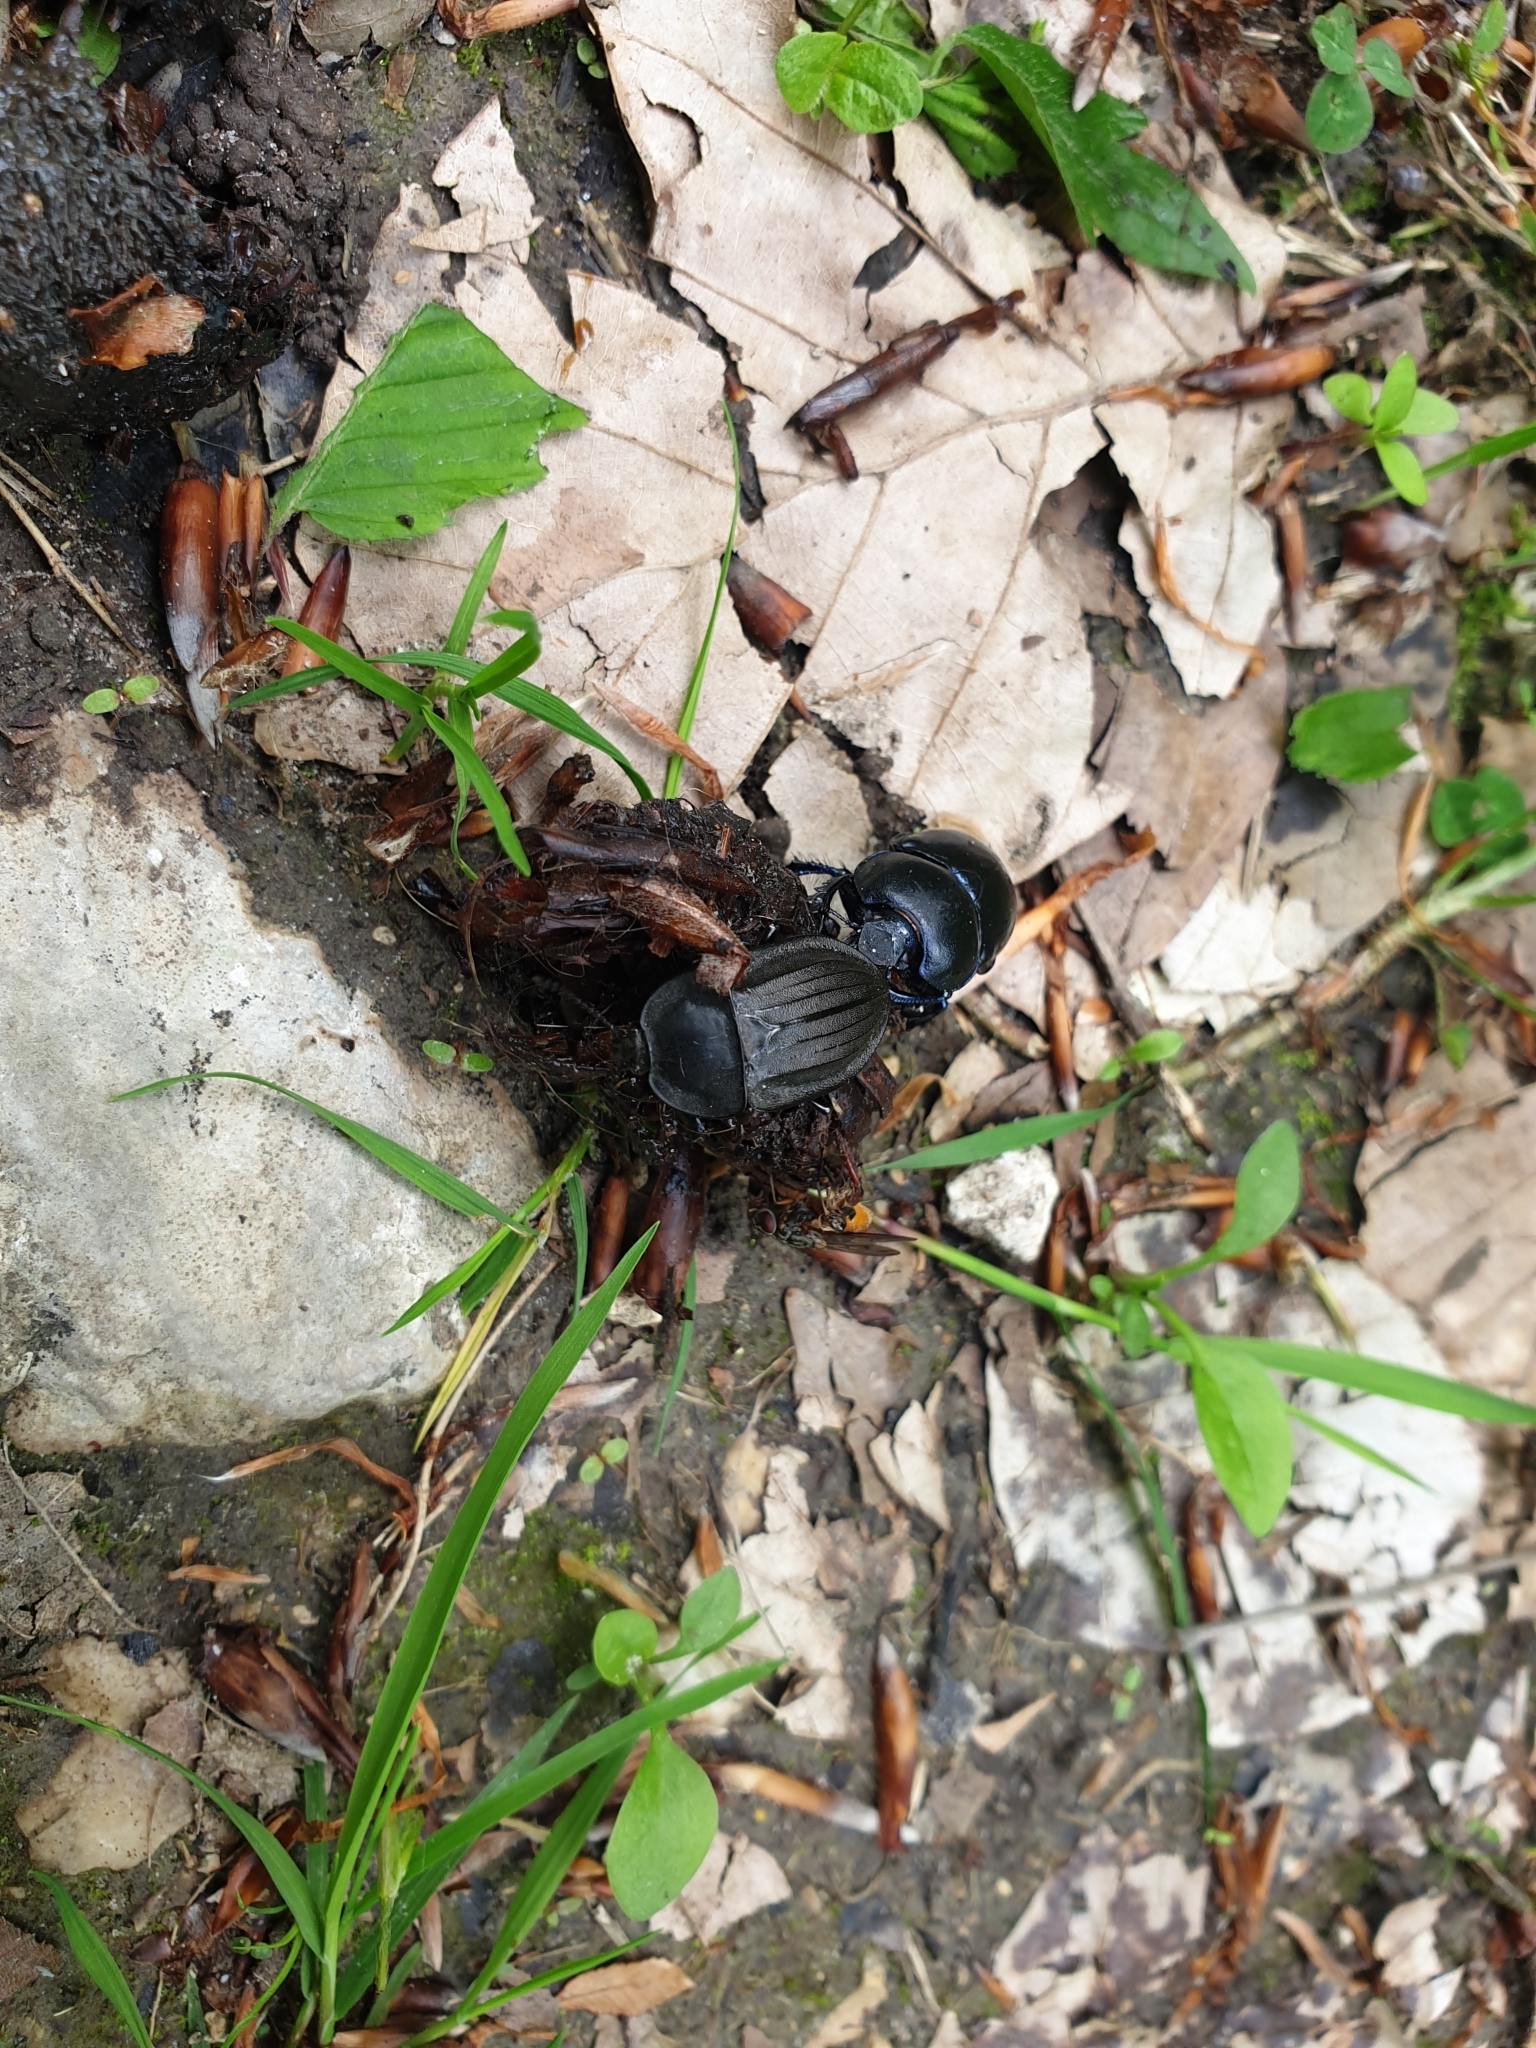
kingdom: Animalia
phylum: Arthropoda
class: Insecta
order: Coleoptera
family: Staphylinidae
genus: Silpha
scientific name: Silpha carinata
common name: Silphid beetle
